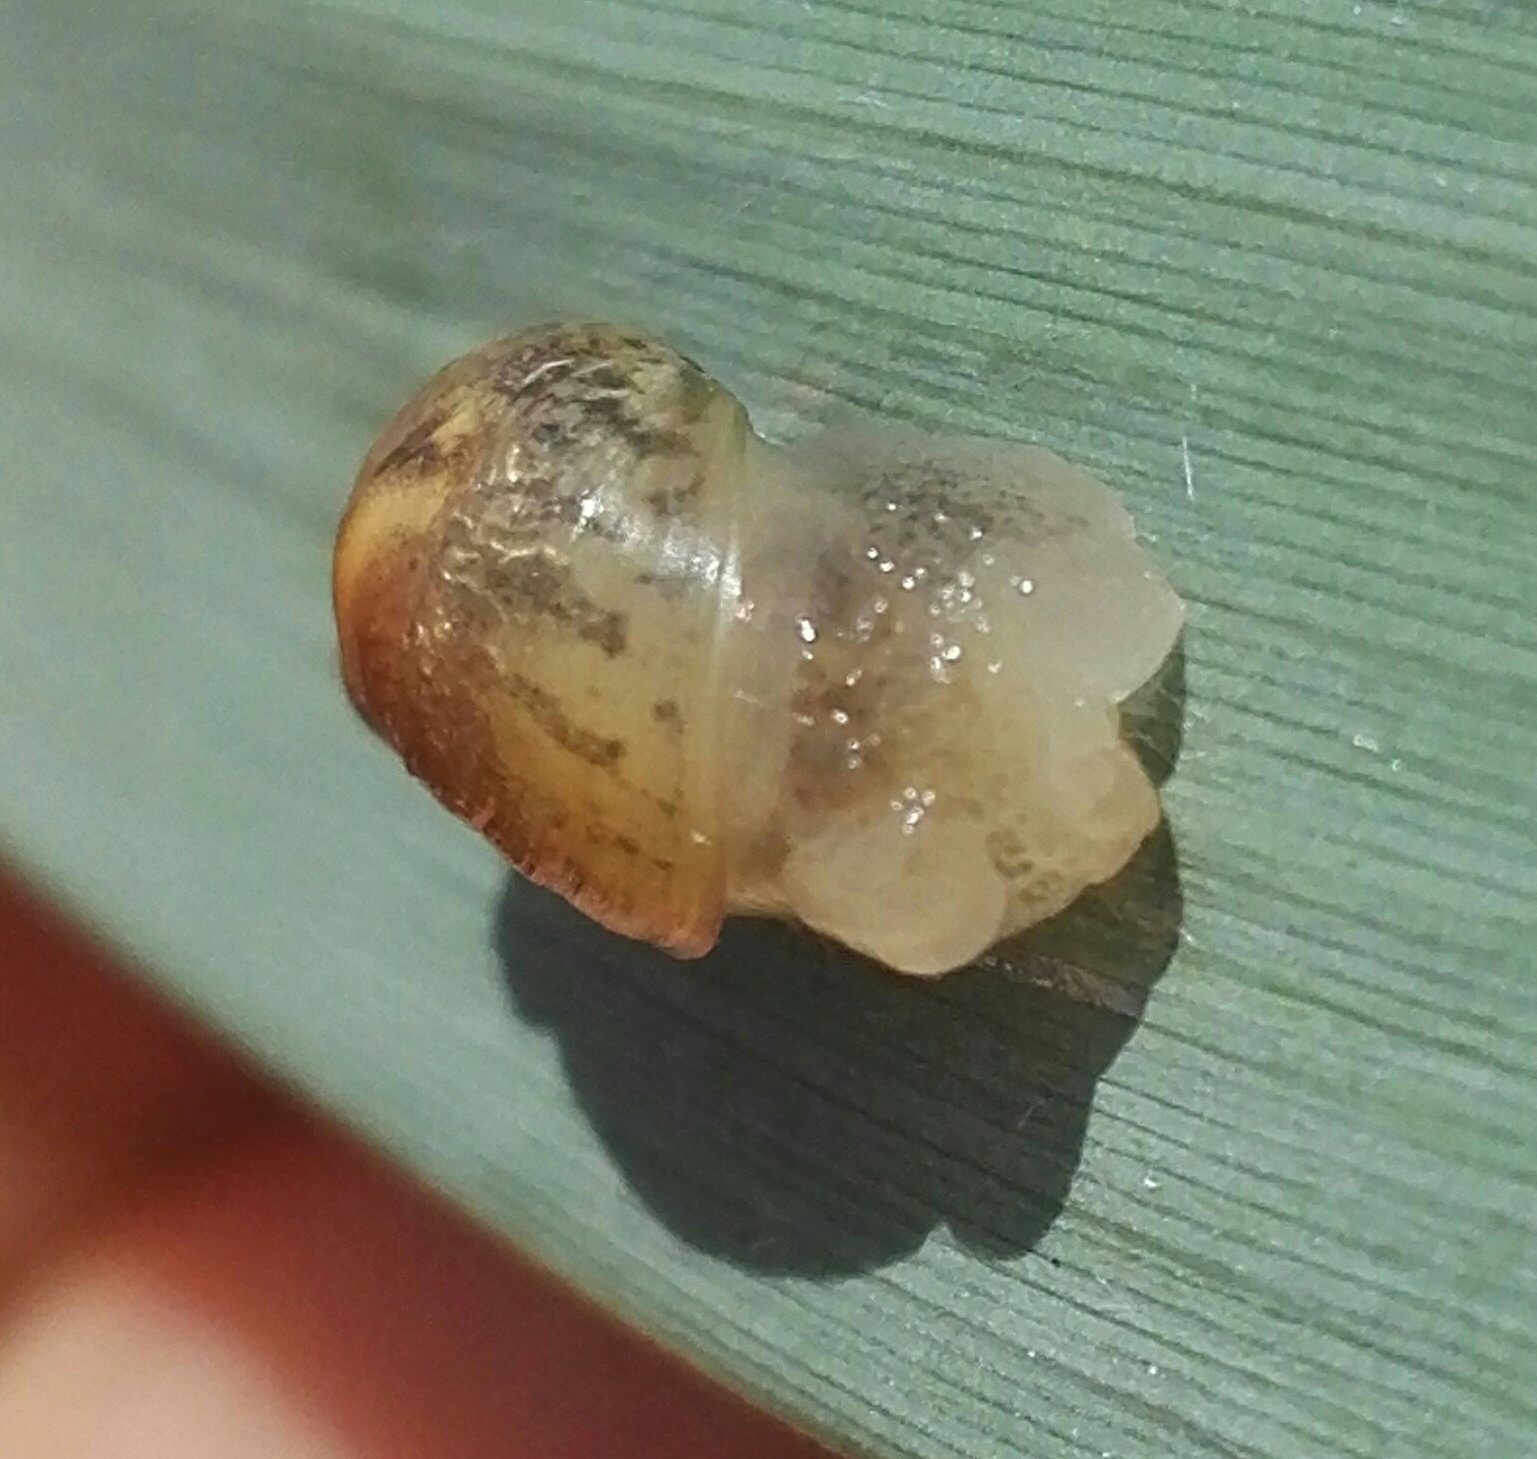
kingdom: Animalia
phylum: Mollusca
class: Gastropoda
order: Stylommatophora
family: Succineidae
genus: Succinea
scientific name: Succinea putris
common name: European ambersnail
